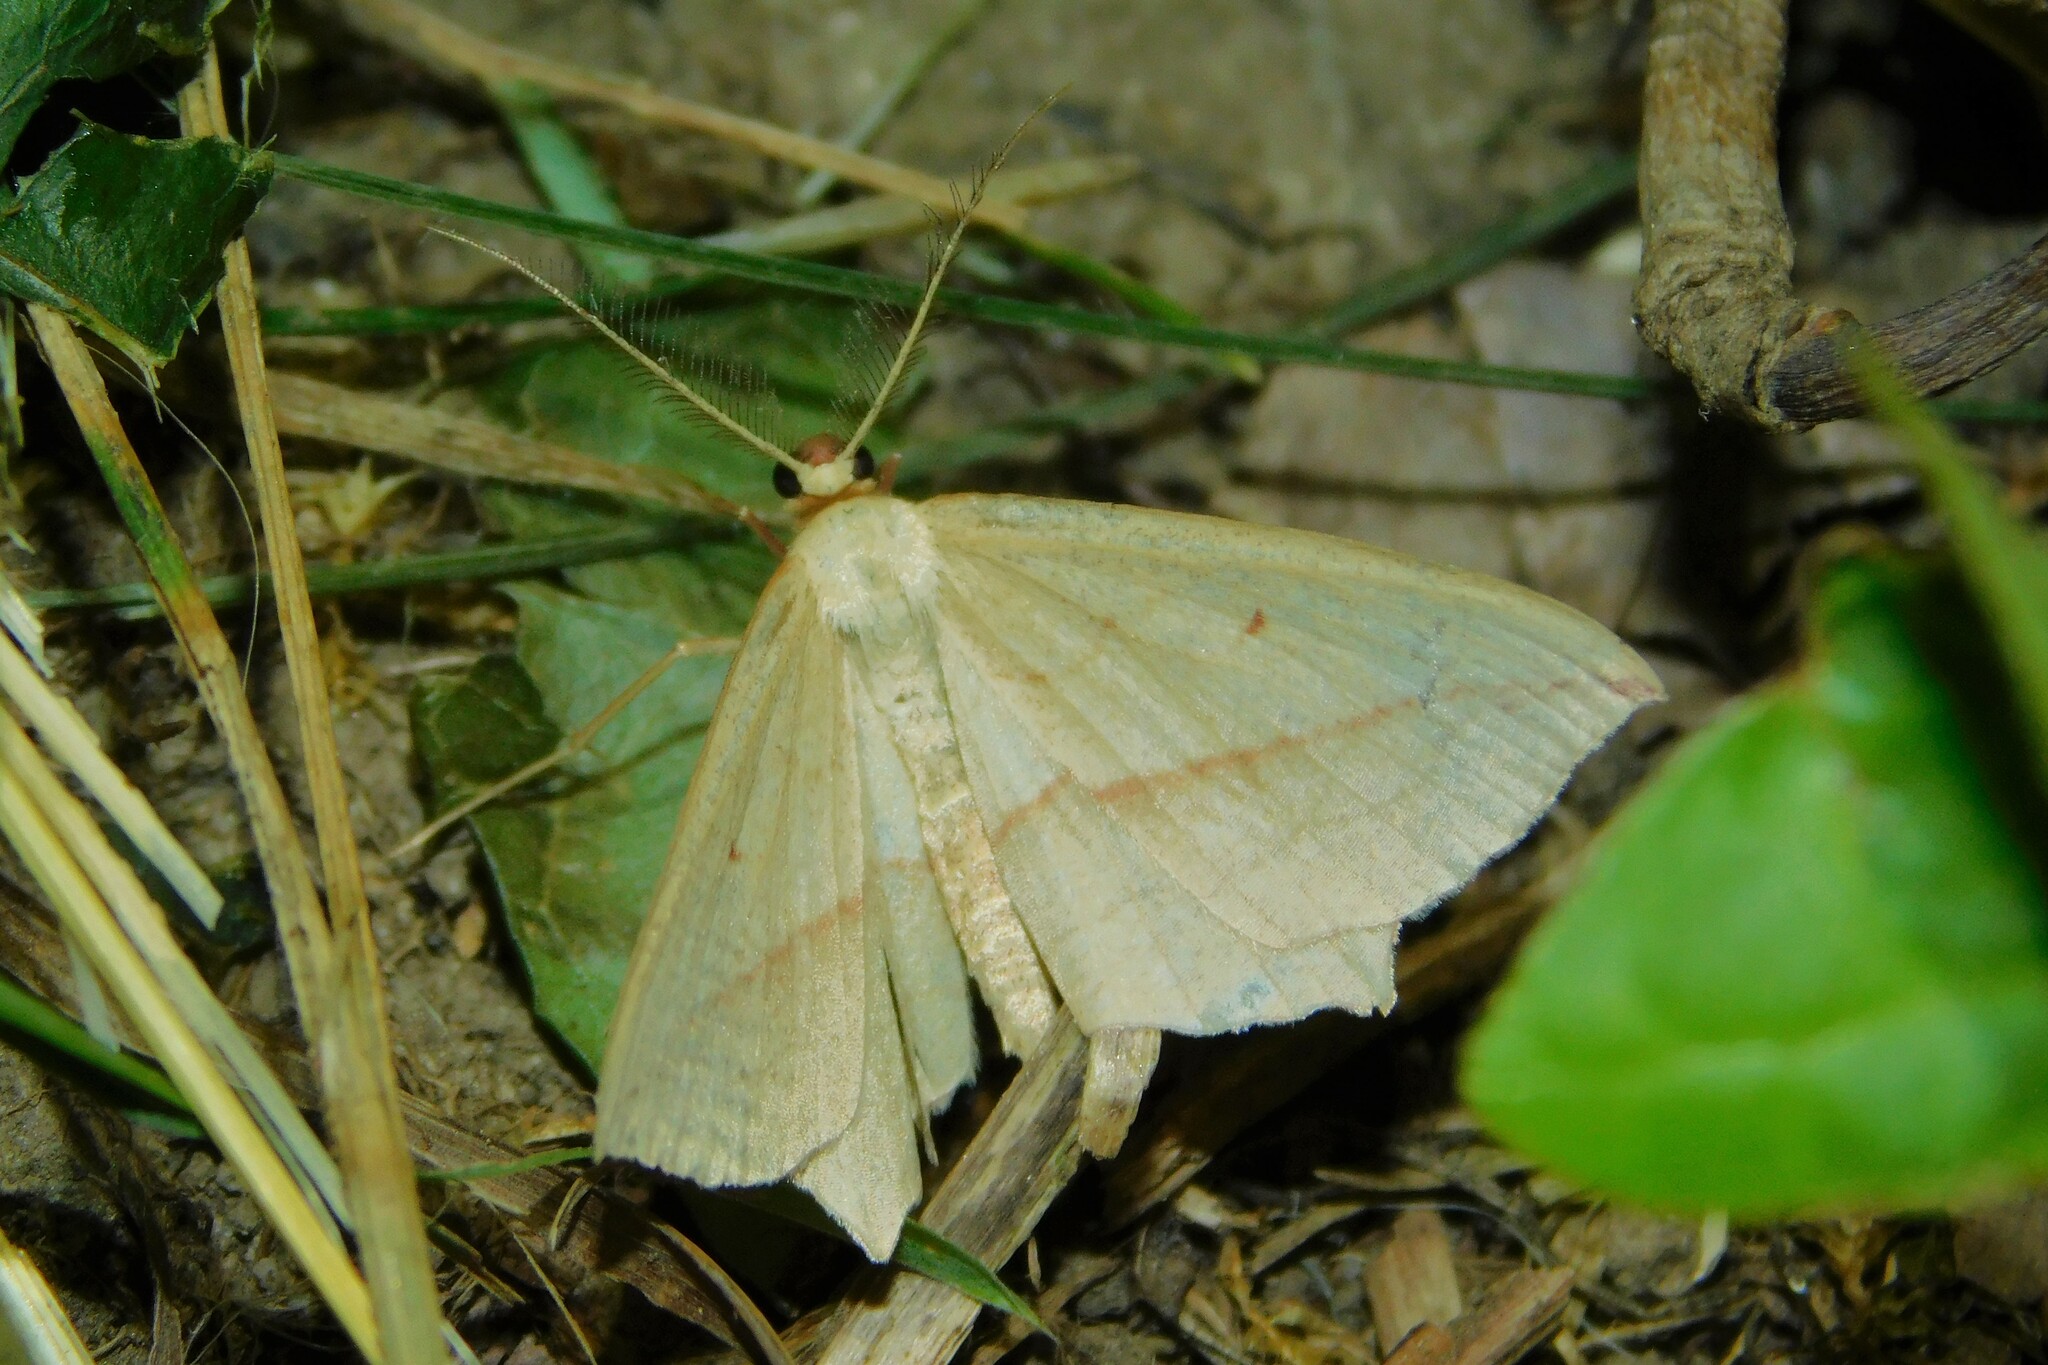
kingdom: Animalia
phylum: Arthropoda
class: Insecta
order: Lepidoptera
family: Geometridae
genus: Timandra
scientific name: Timandra comae
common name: Blood-vein
